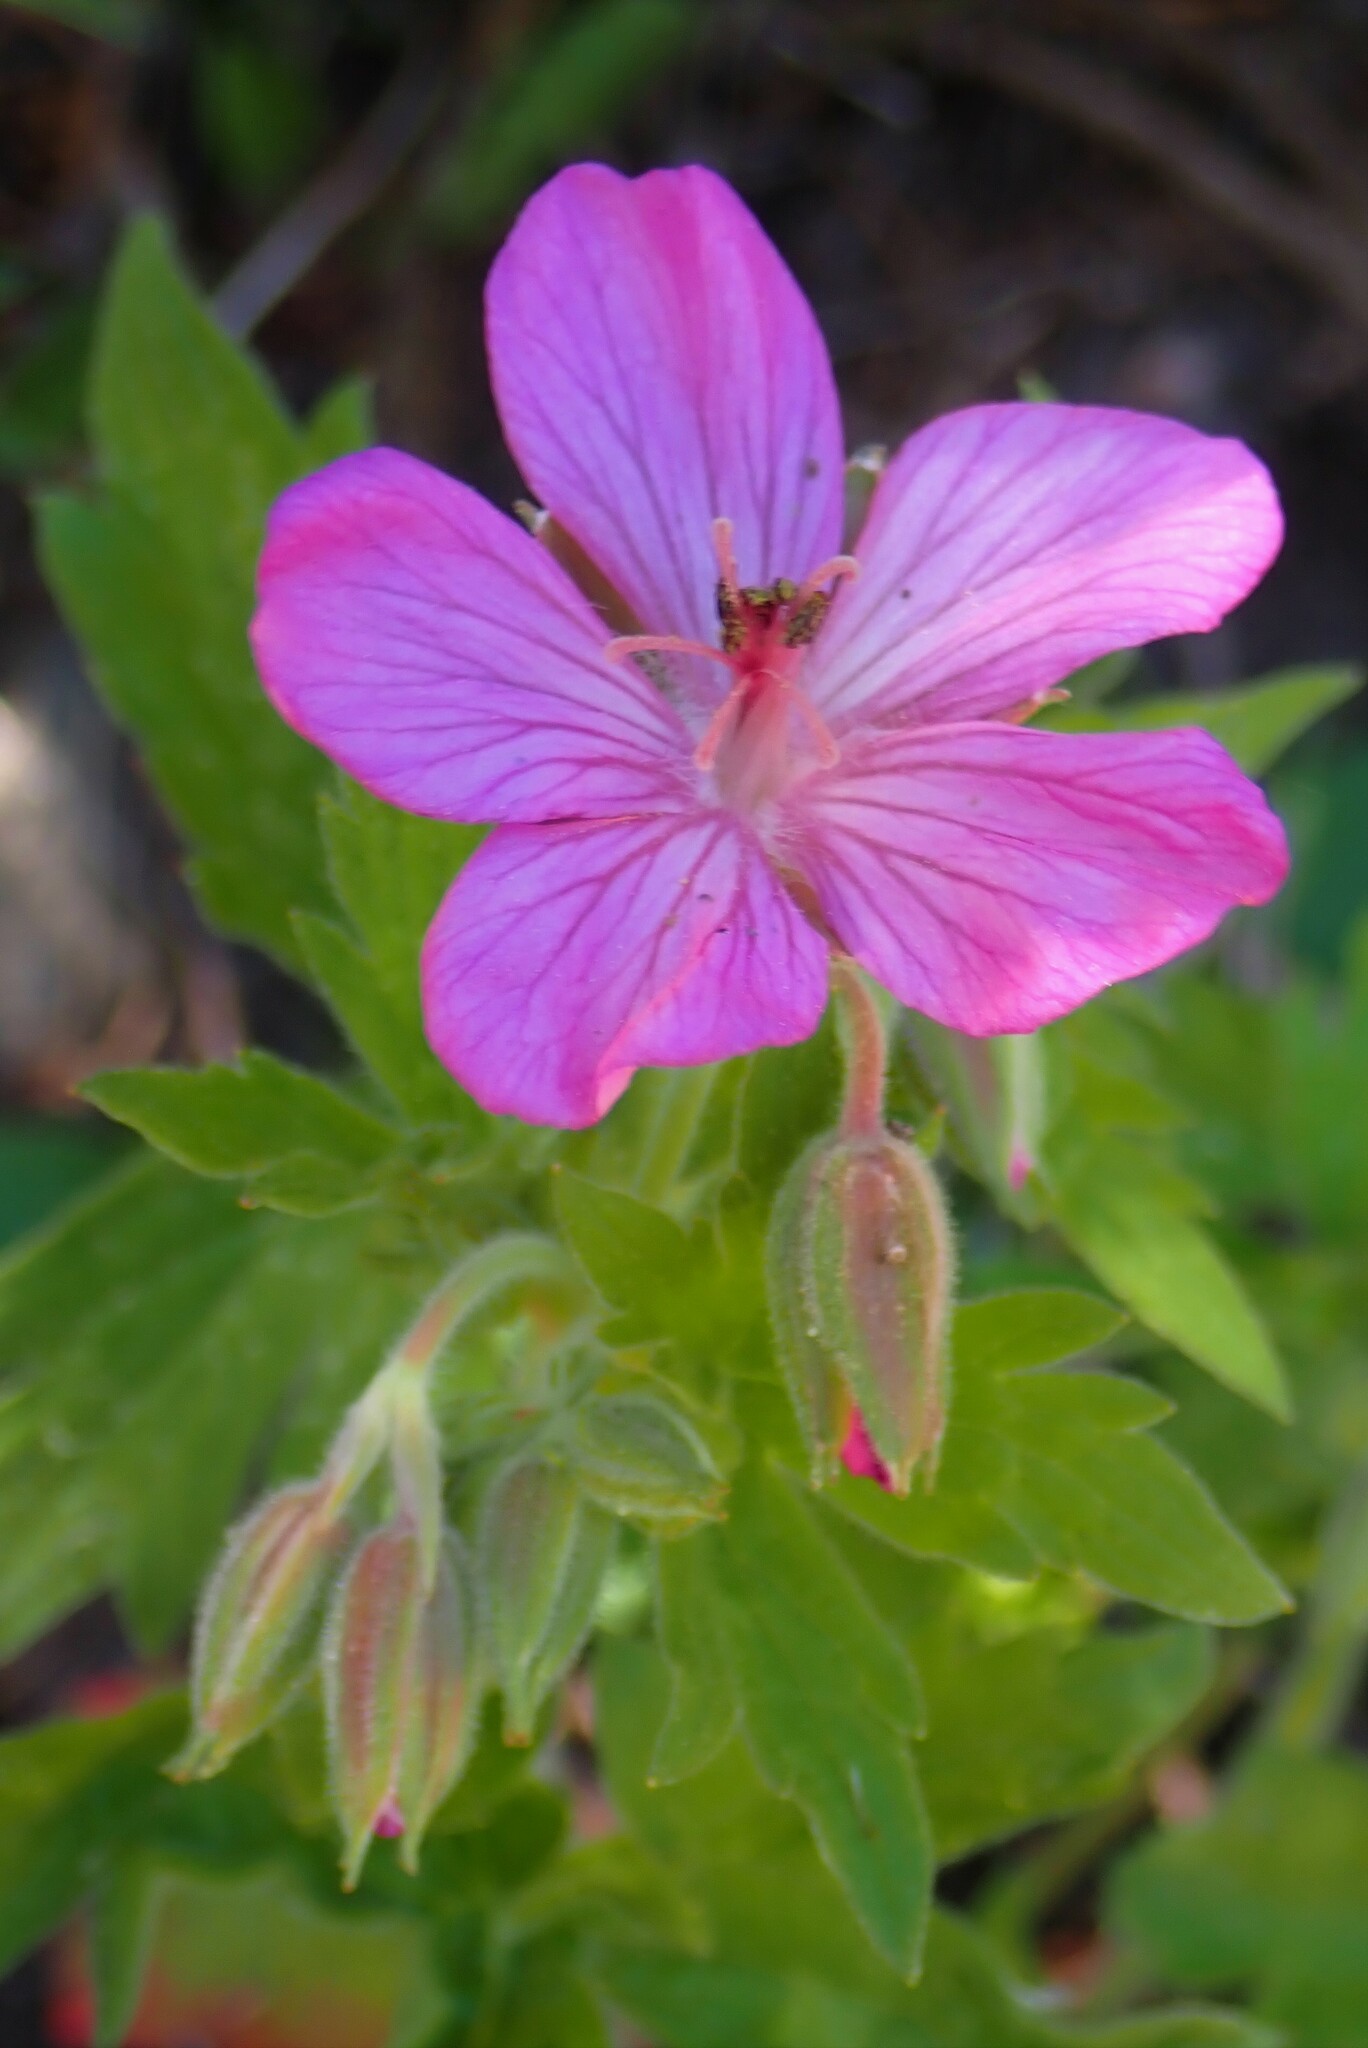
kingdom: Plantae
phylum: Tracheophyta
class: Magnoliopsida
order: Geraniales
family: Geraniaceae
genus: Geranium
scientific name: Geranium viscosissimum
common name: Purple geranium
